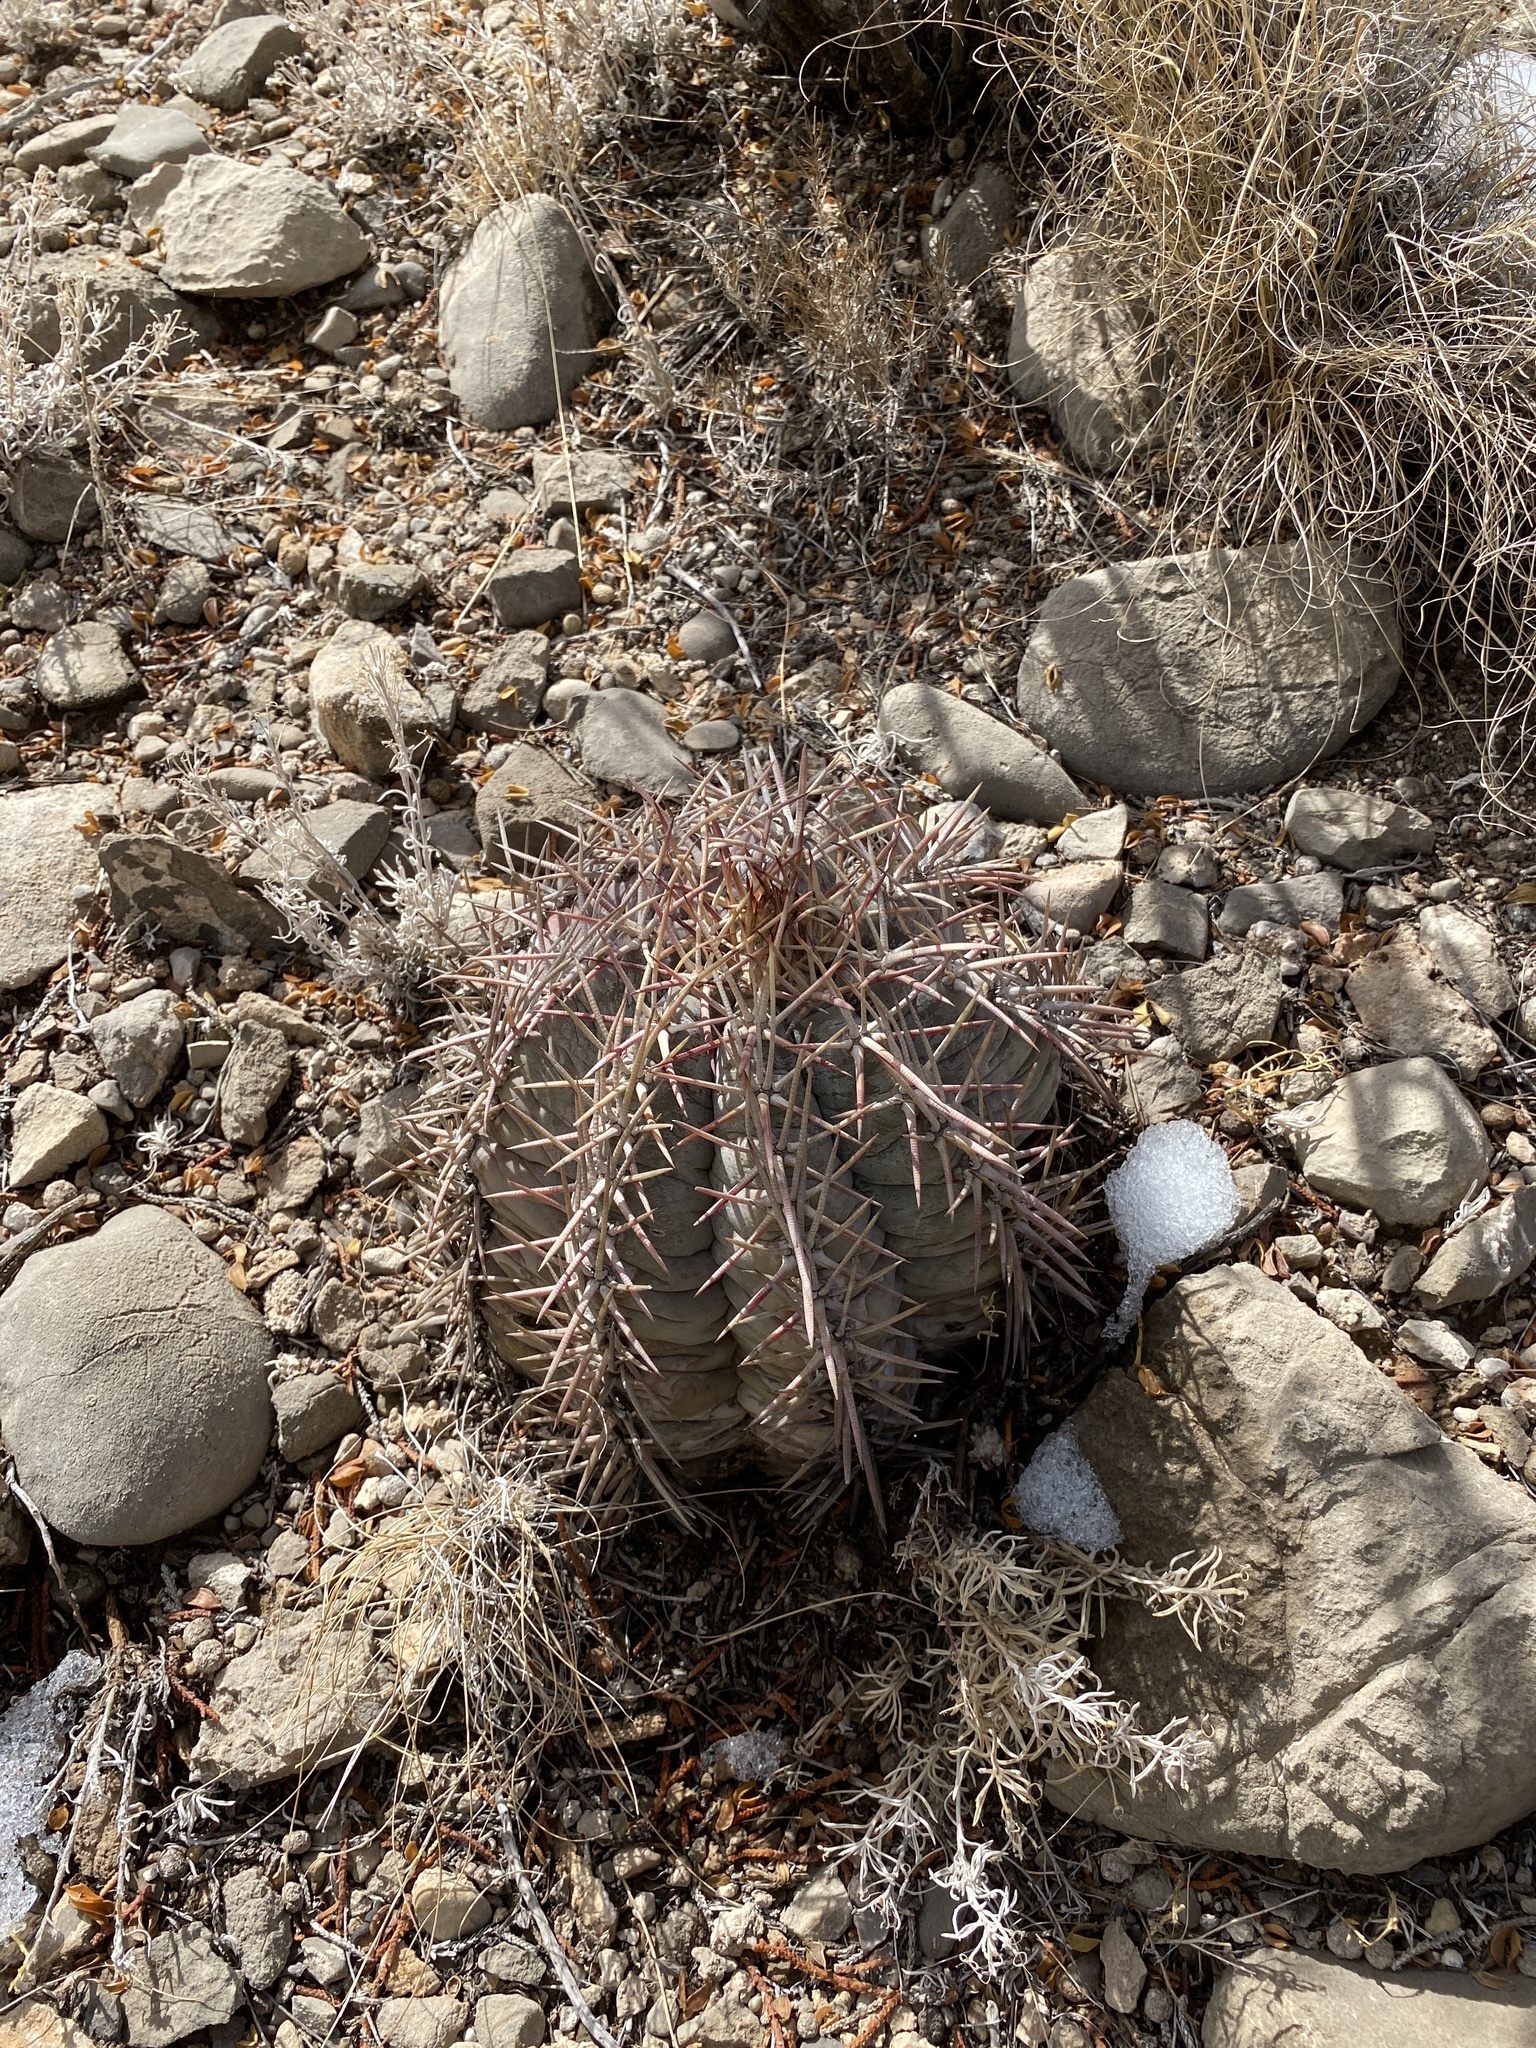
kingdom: Plantae
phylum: Tracheophyta
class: Magnoliopsida
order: Caryophyllales
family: Cactaceae
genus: Echinocactus
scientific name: Echinocactus horizonthalonius
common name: Devilshead
